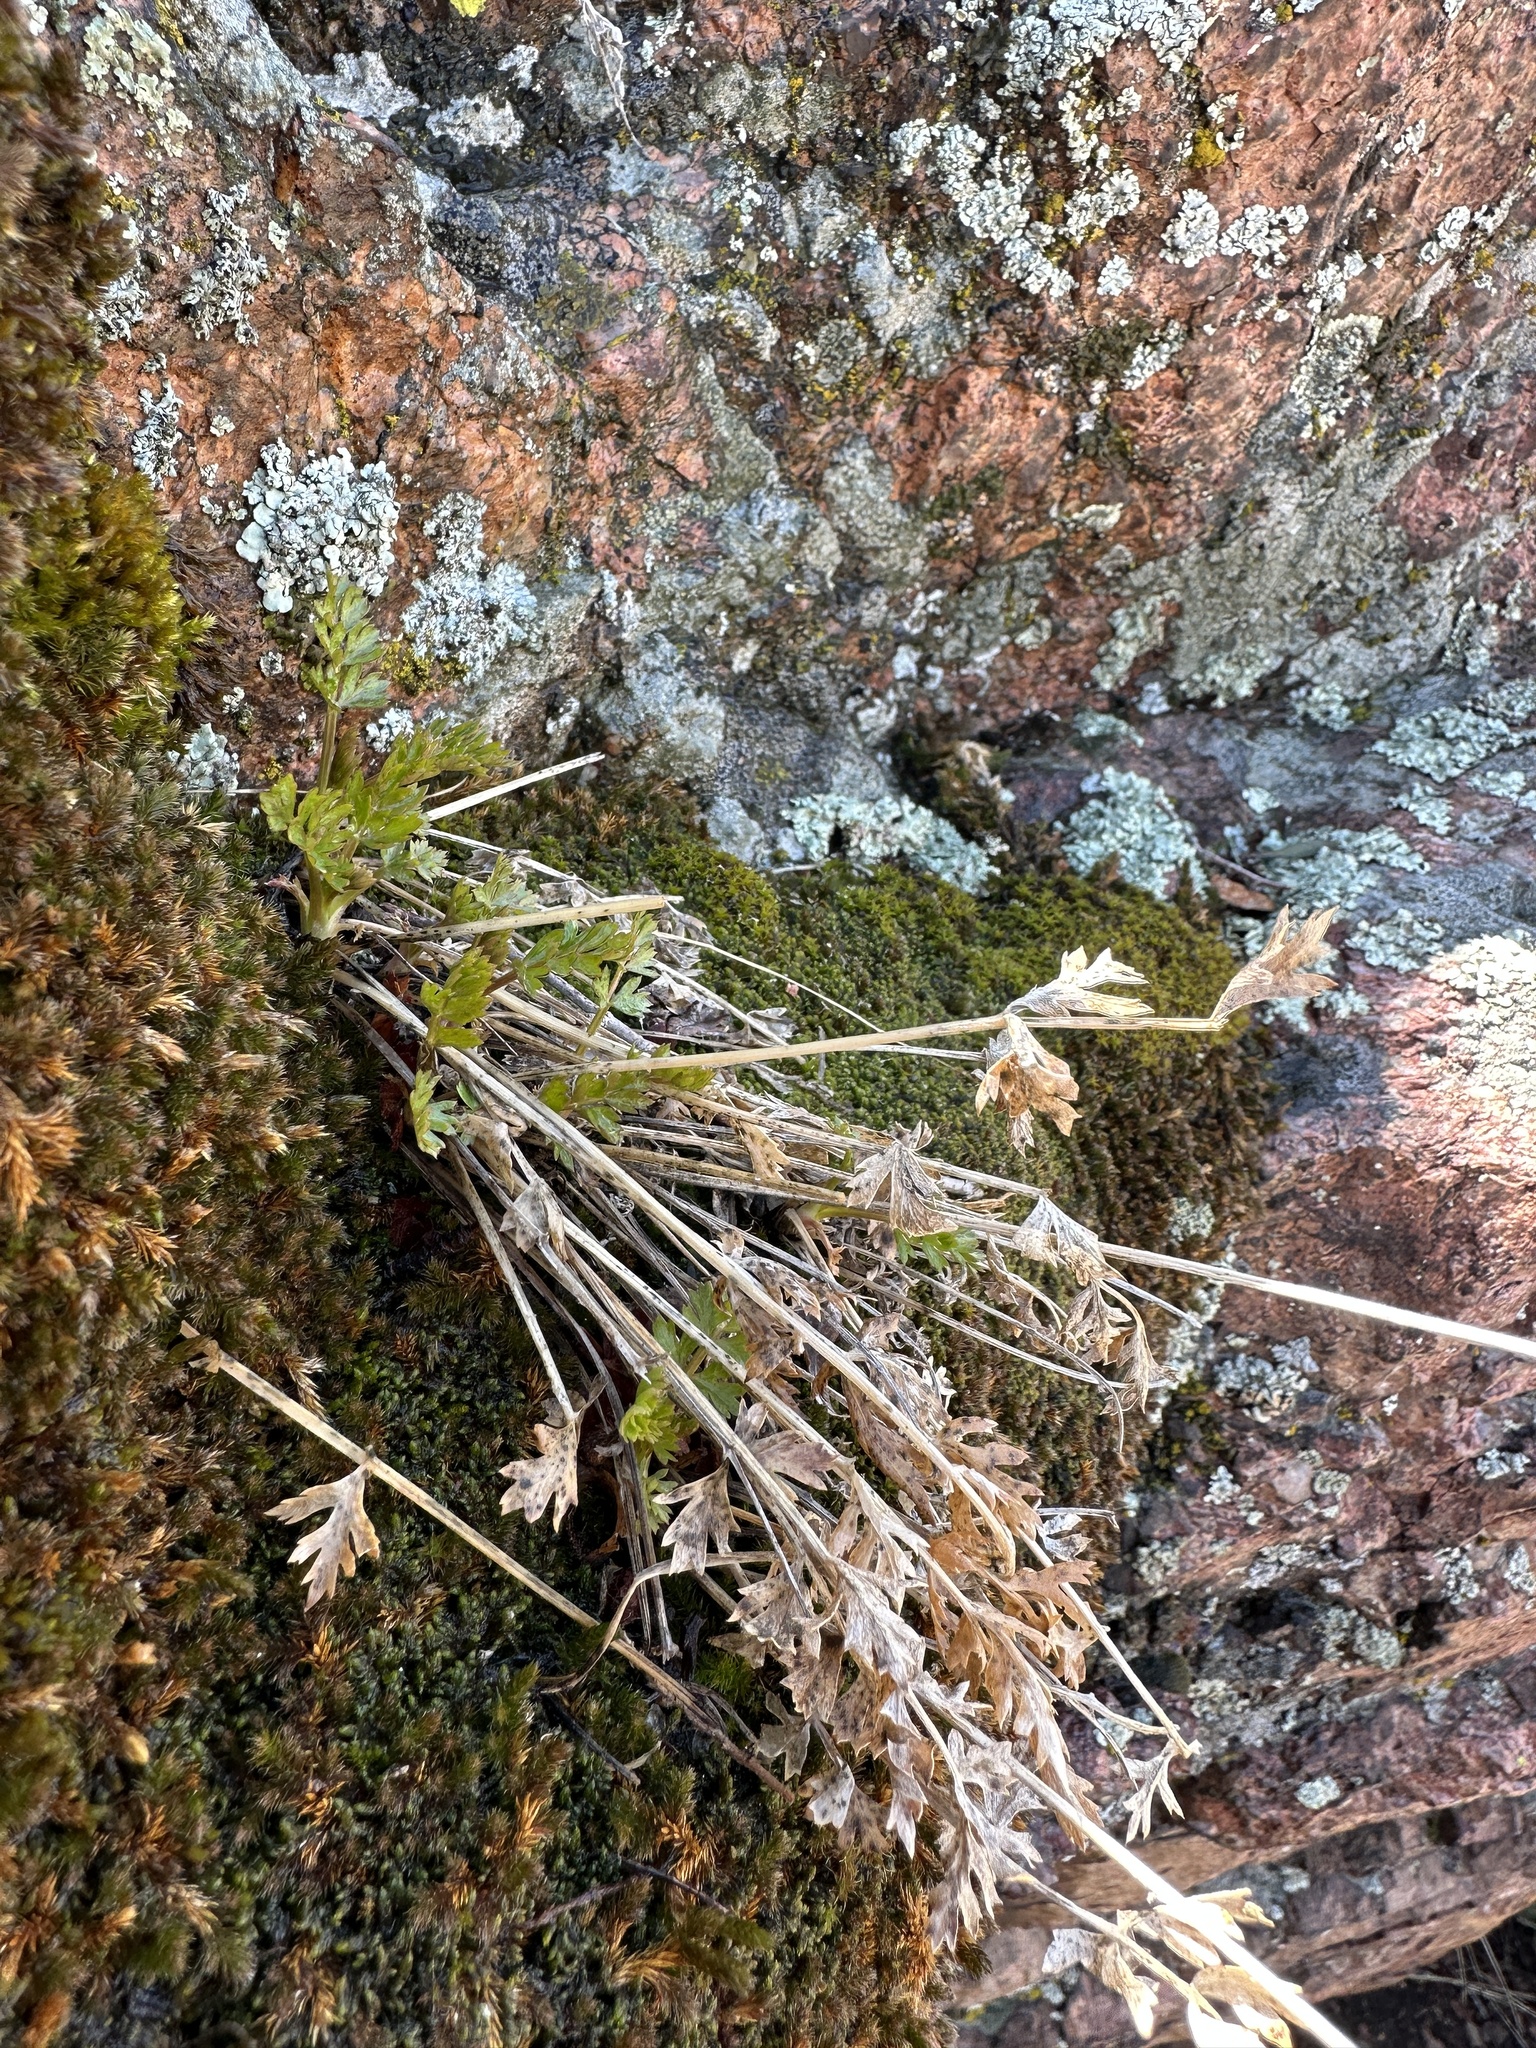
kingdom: Plantae
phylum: Tracheophyta
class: Magnoliopsida
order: Apiales
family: Apiaceae
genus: Cymopterus
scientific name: Cymopterus hallii
